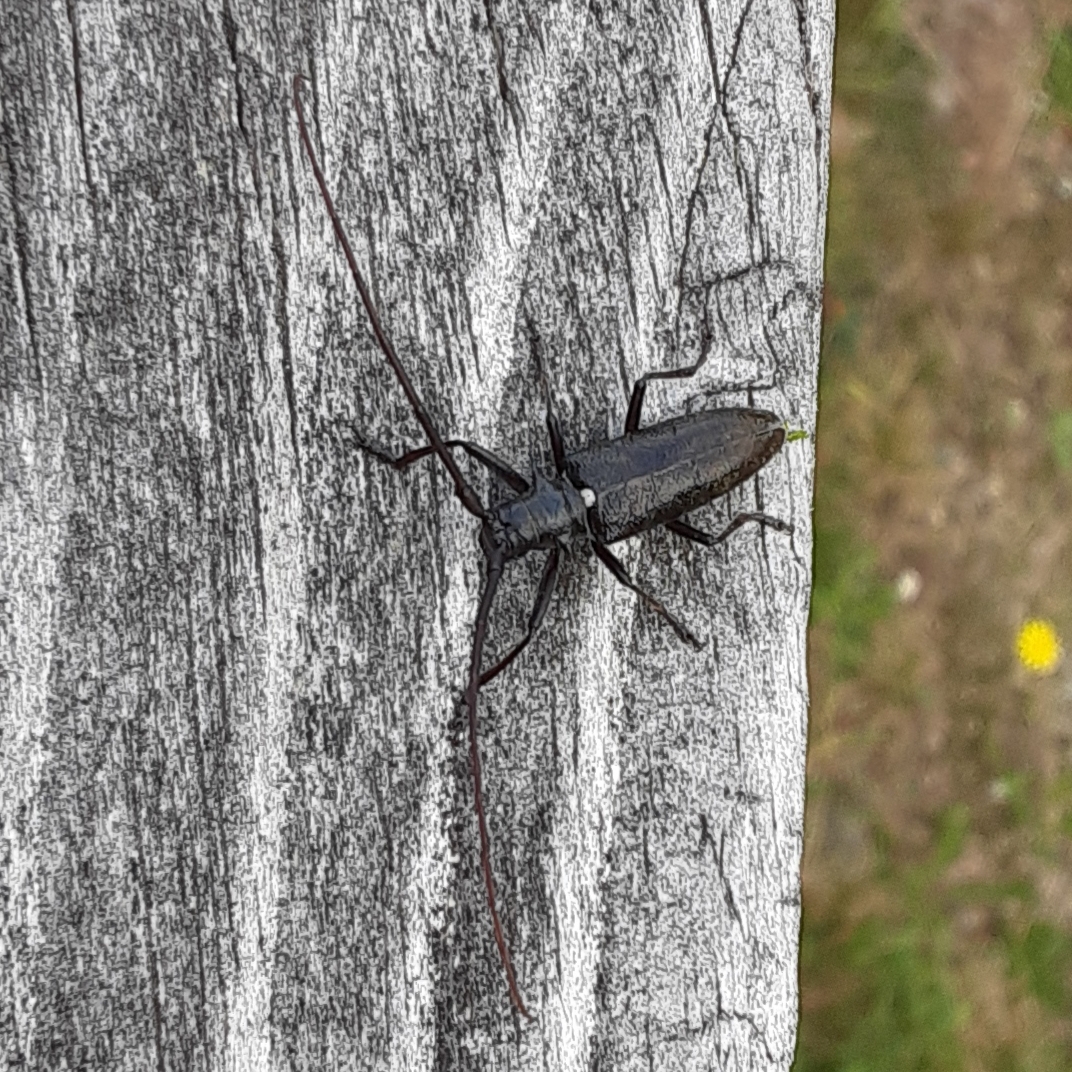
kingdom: Animalia
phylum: Arthropoda
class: Insecta
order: Coleoptera
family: Cerambycidae
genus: Monochamus
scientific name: Monochamus scutellatus
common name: White-spotted sawyer beetle
